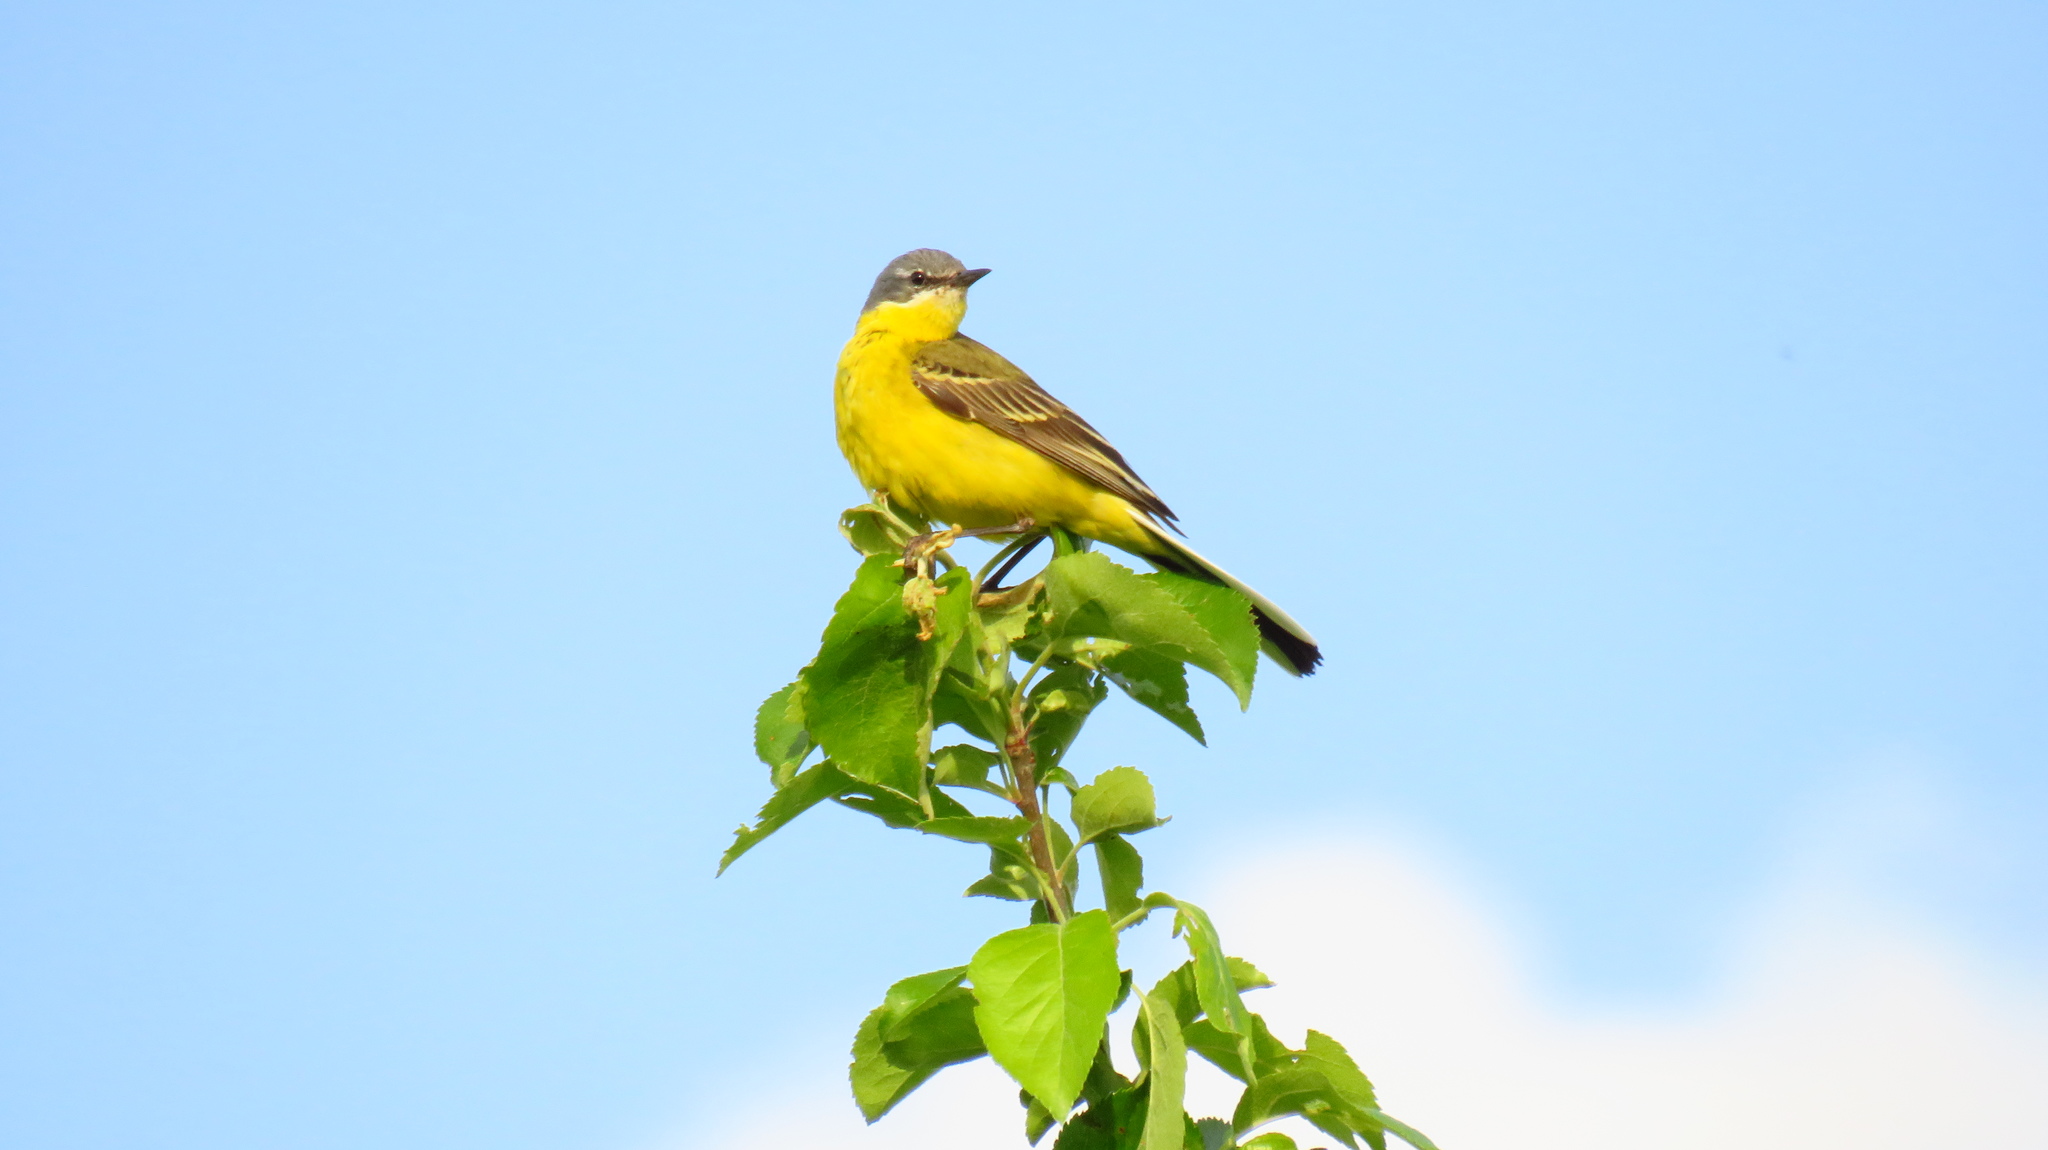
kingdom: Animalia
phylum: Chordata
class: Aves
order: Passeriformes
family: Motacillidae
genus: Motacilla
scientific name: Motacilla flava
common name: Western yellow wagtail
